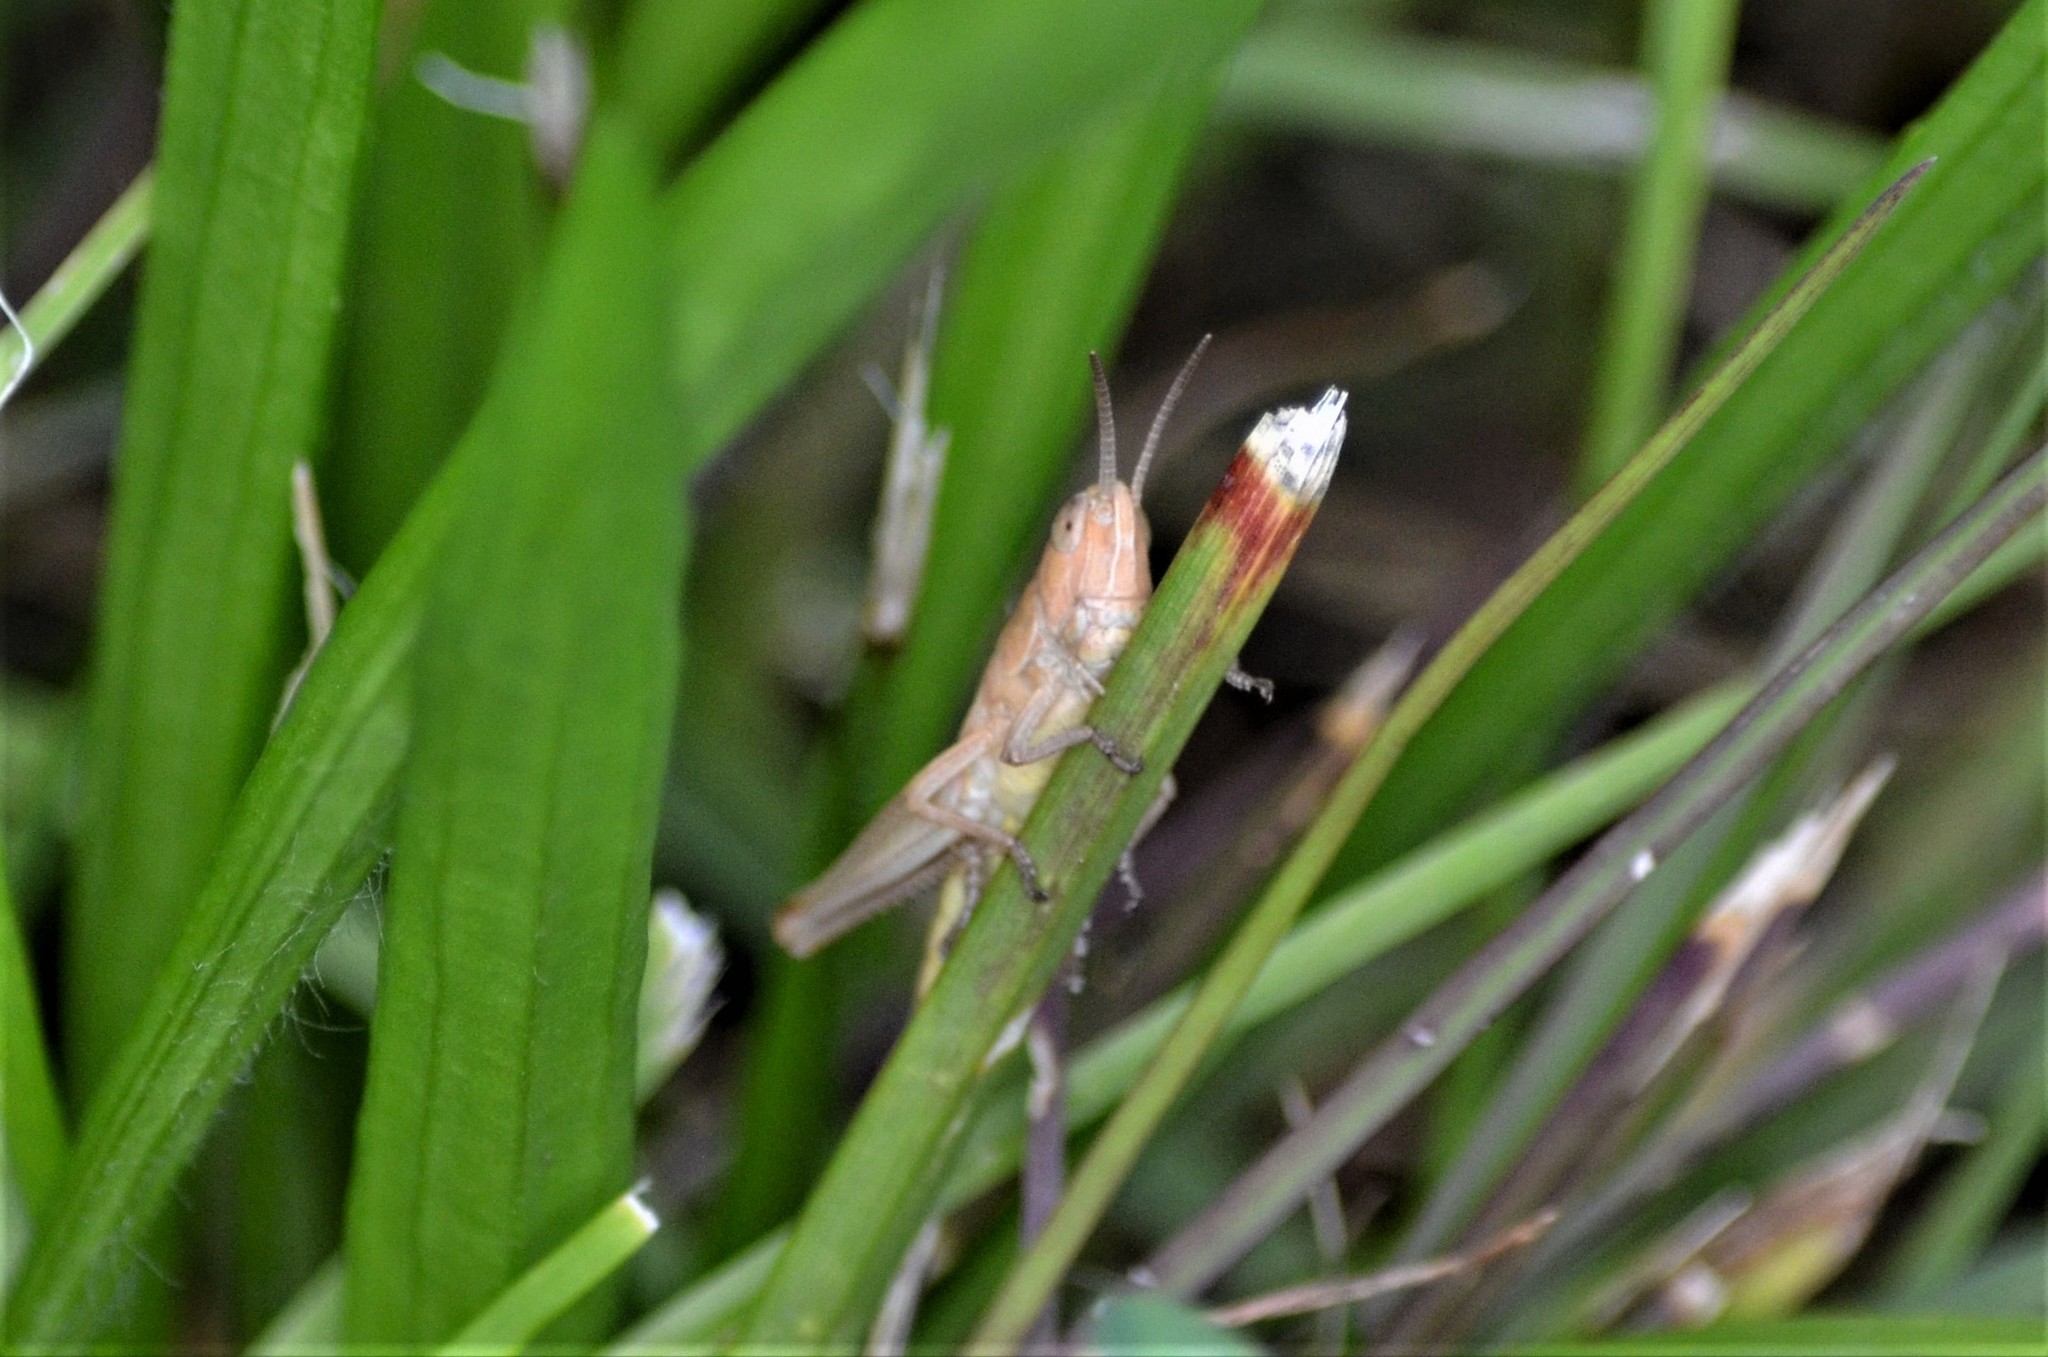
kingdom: Animalia
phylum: Arthropoda
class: Insecta
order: Orthoptera
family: Acrididae
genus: Chorthippus
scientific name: Chorthippus dorsatus
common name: Steppe grasshopper
